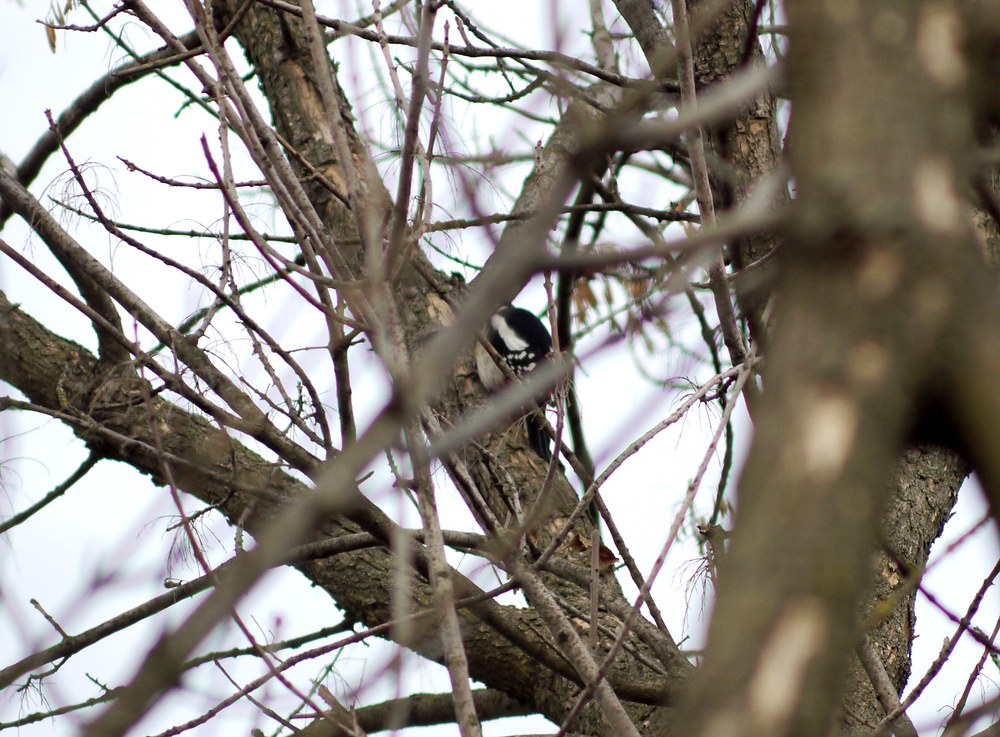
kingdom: Animalia
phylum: Chordata
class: Aves
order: Piciformes
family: Picidae
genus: Dendrocopos
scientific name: Dendrocopos major
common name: Great spotted woodpecker
